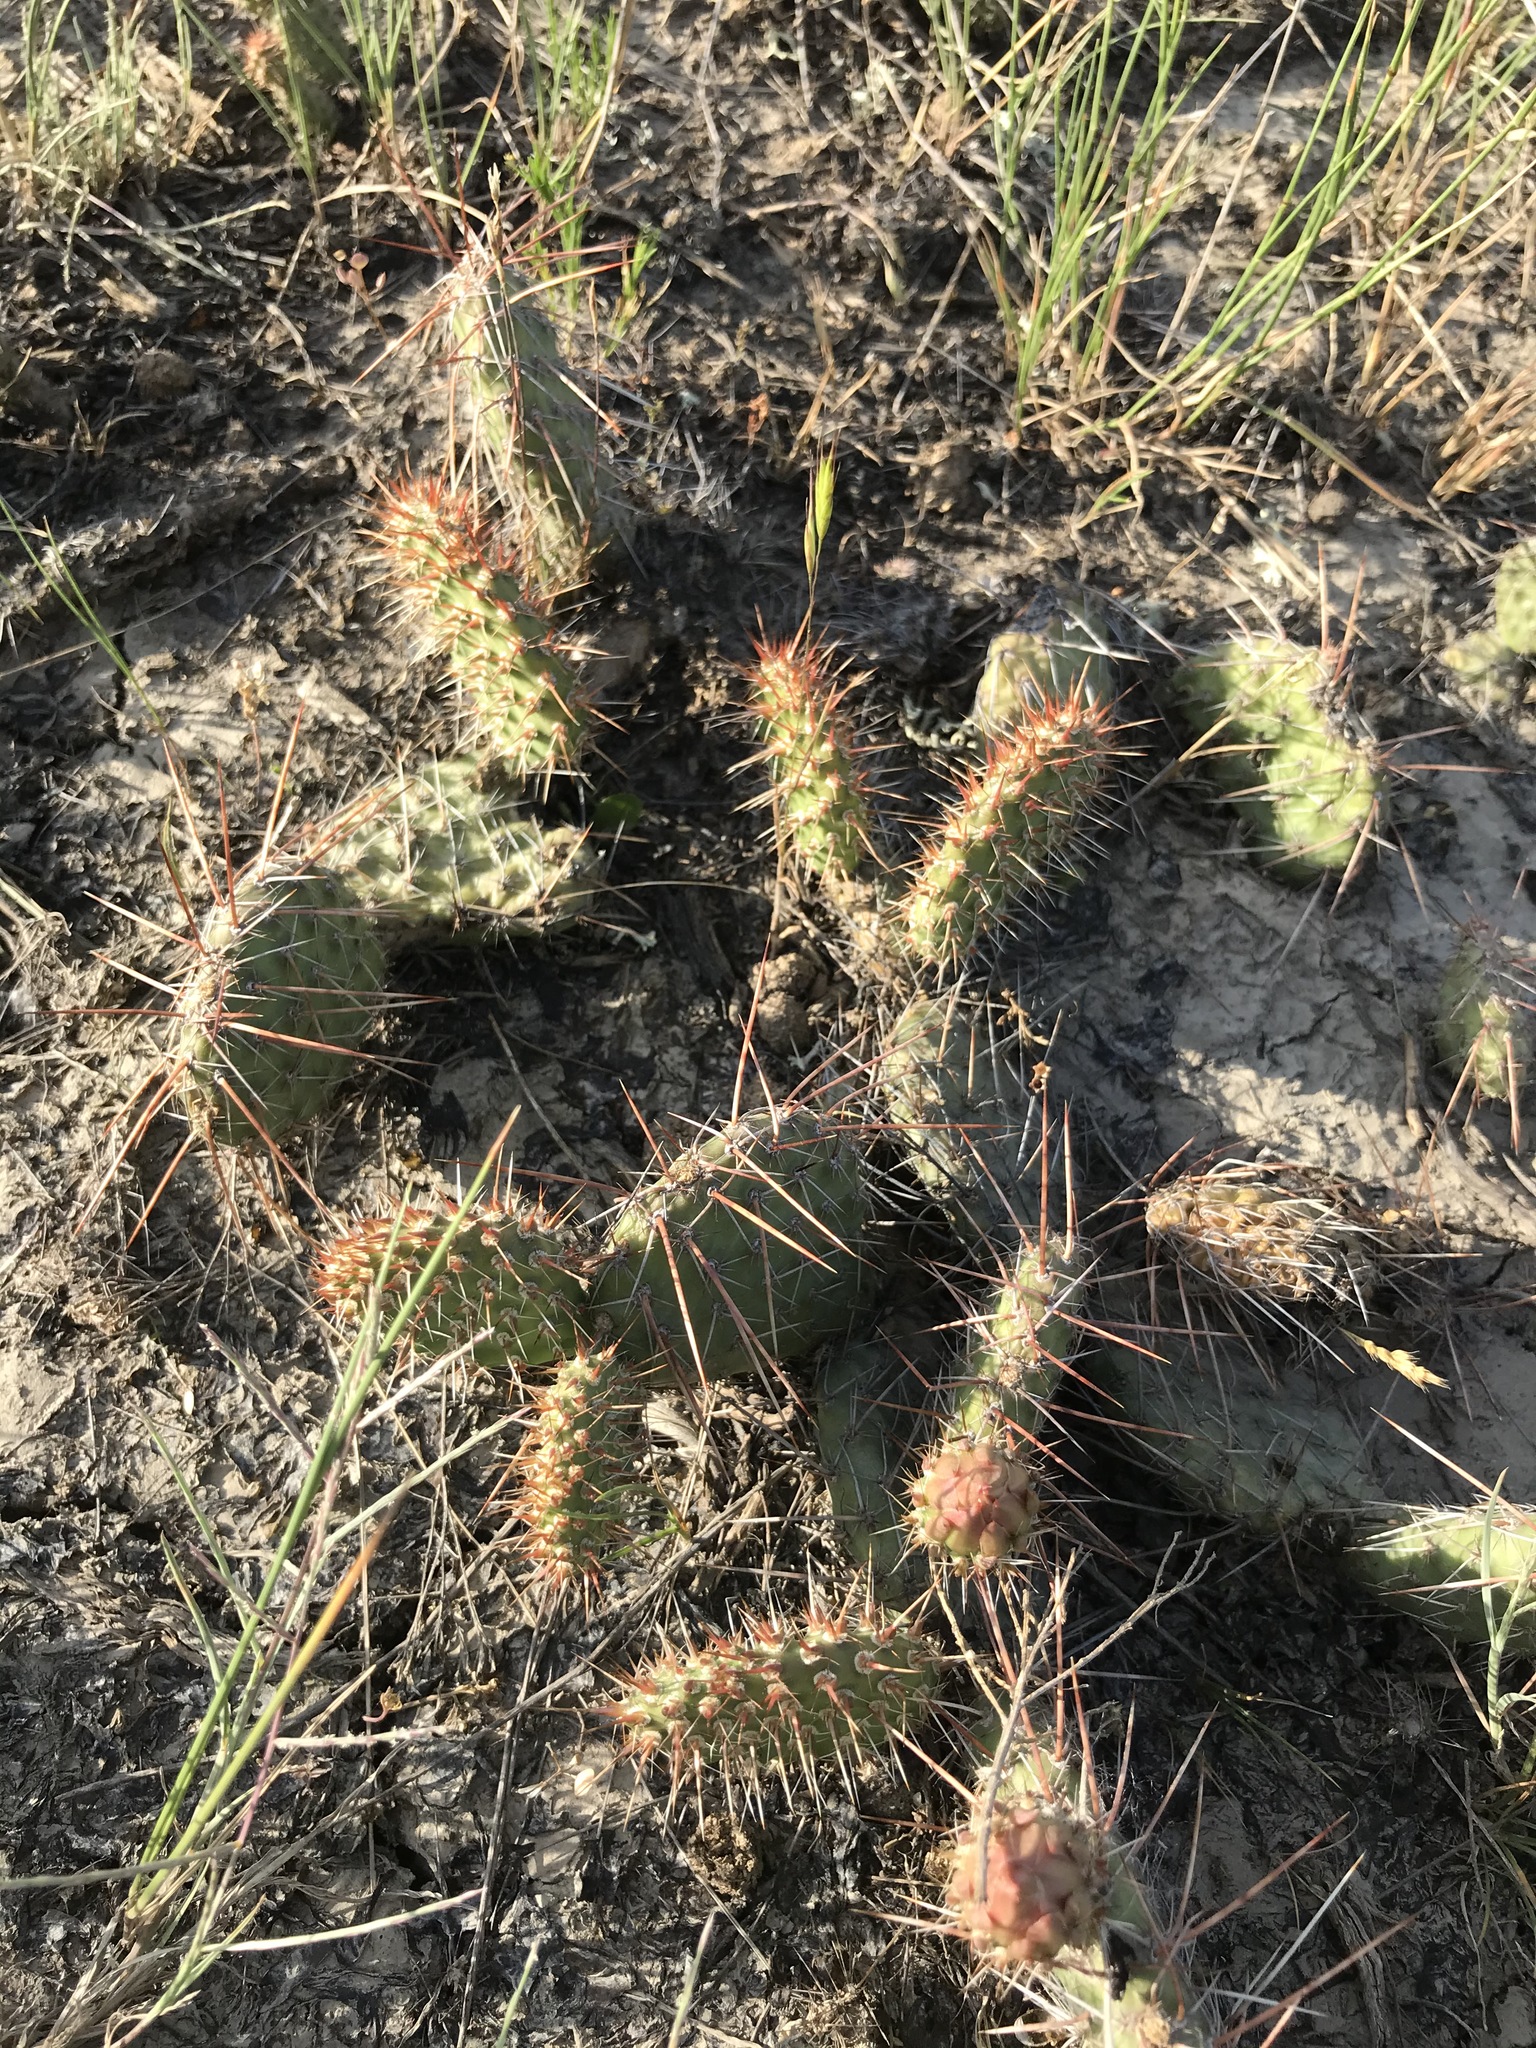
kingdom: Plantae
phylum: Tracheophyta
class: Magnoliopsida
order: Caryophyllales
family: Cactaceae
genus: Opuntia
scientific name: Opuntia polyacantha
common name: Plains prickly-pear
